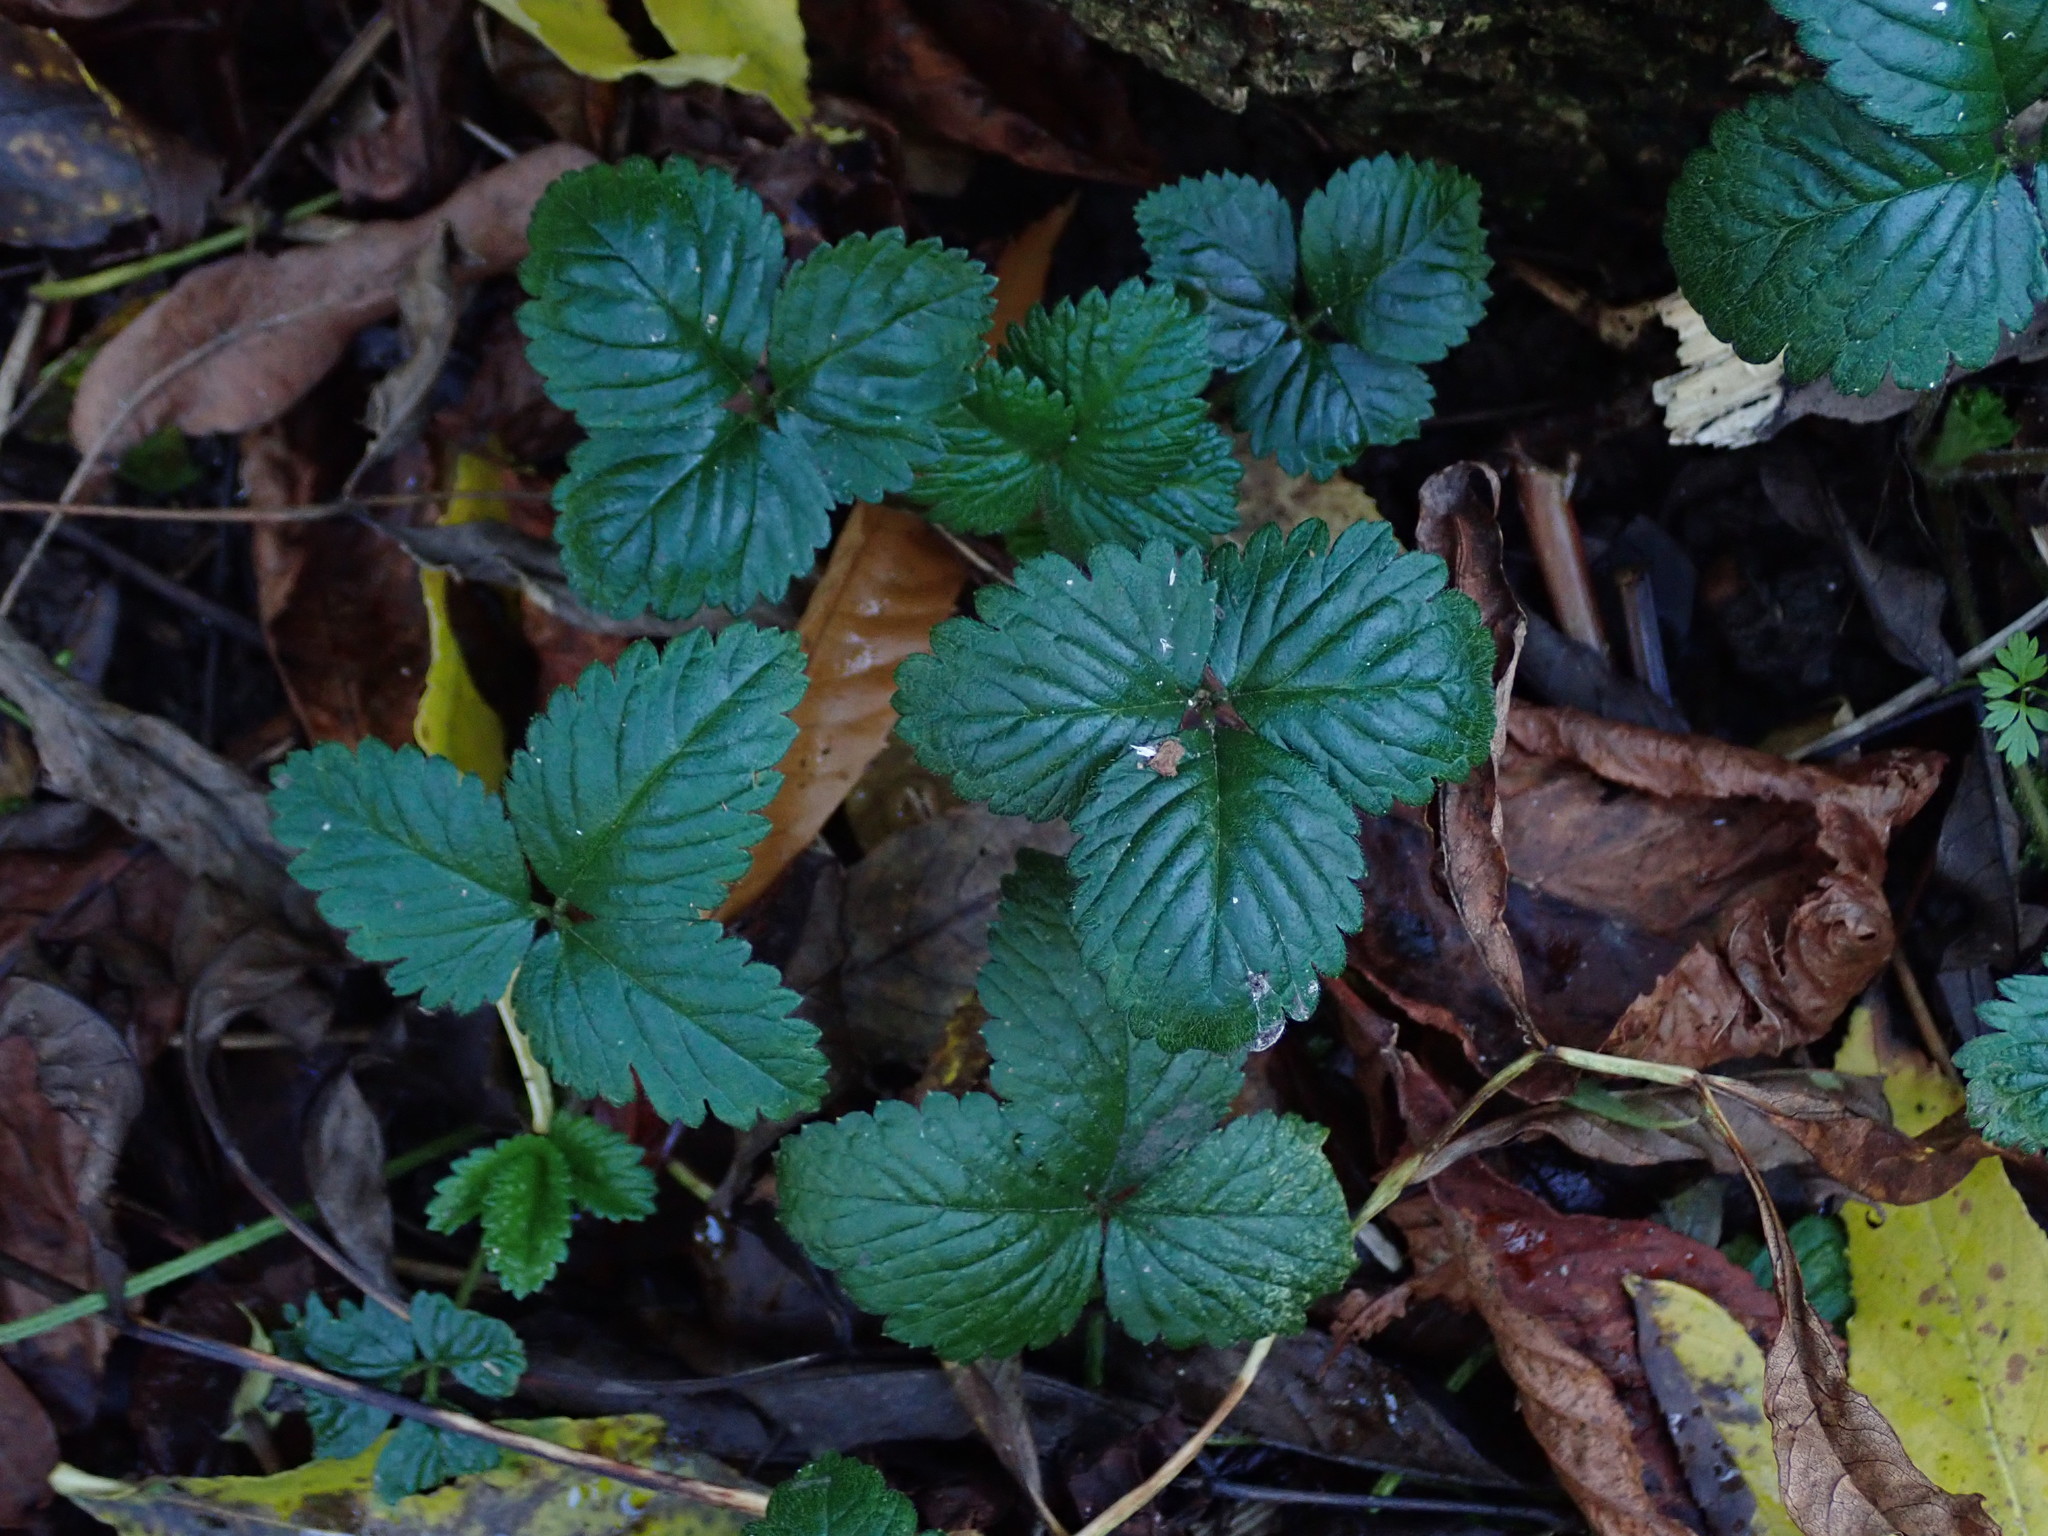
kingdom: Plantae
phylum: Tracheophyta
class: Magnoliopsida
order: Rosales
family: Rosaceae
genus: Potentilla
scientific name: Potentilla indica
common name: Yellow-flowered strawberry
